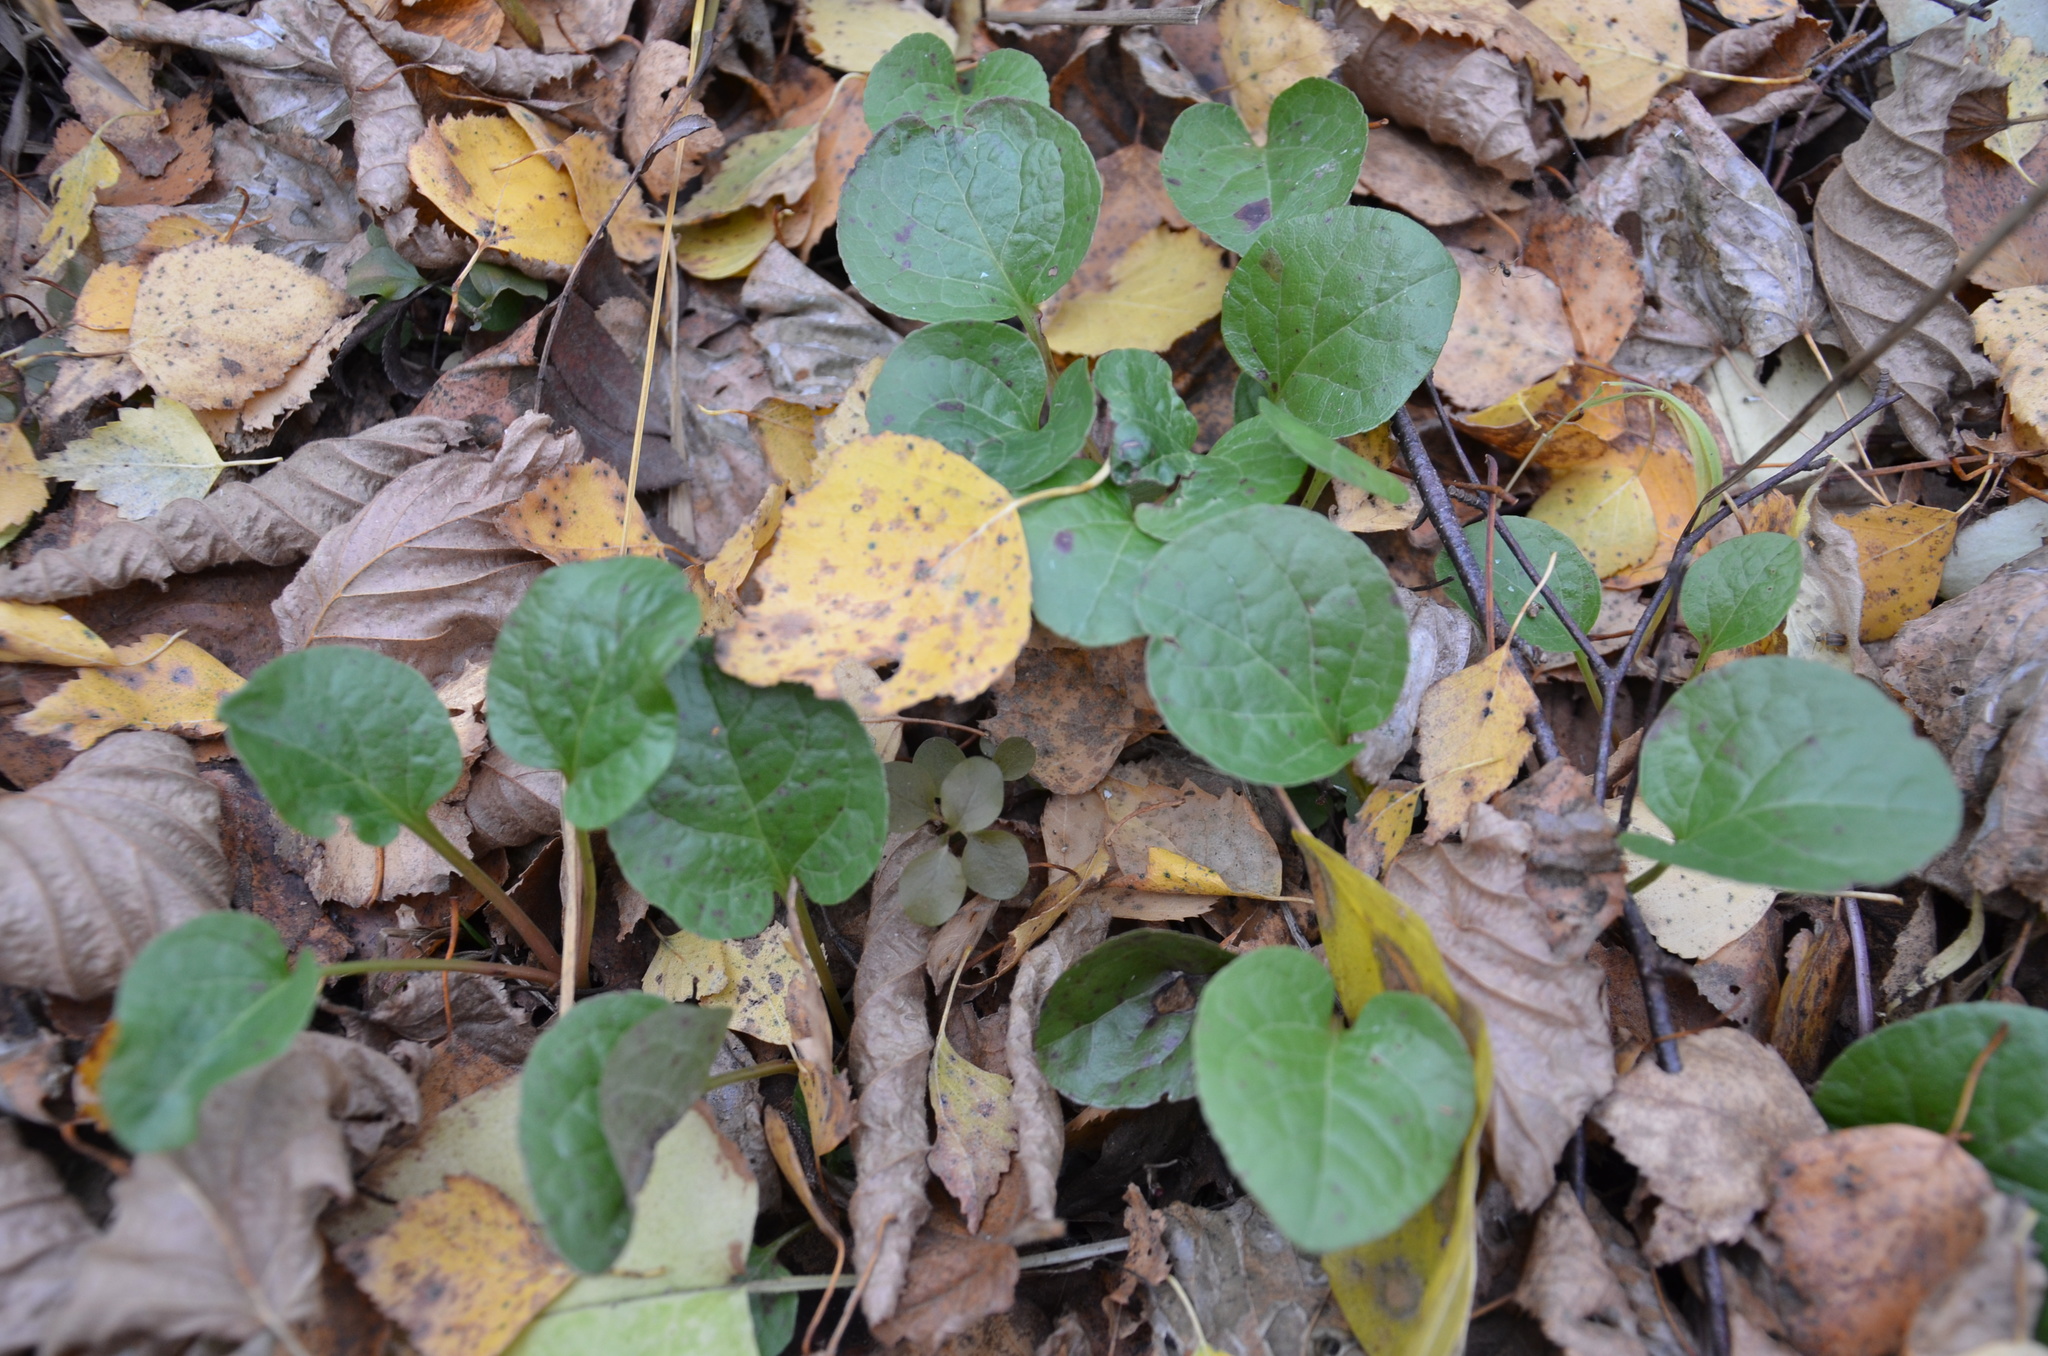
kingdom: Plantae
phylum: Tracheophyta
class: Magnoliopsida
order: Ericales
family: Ericaceae
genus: Pyrola
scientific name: Pyrola
